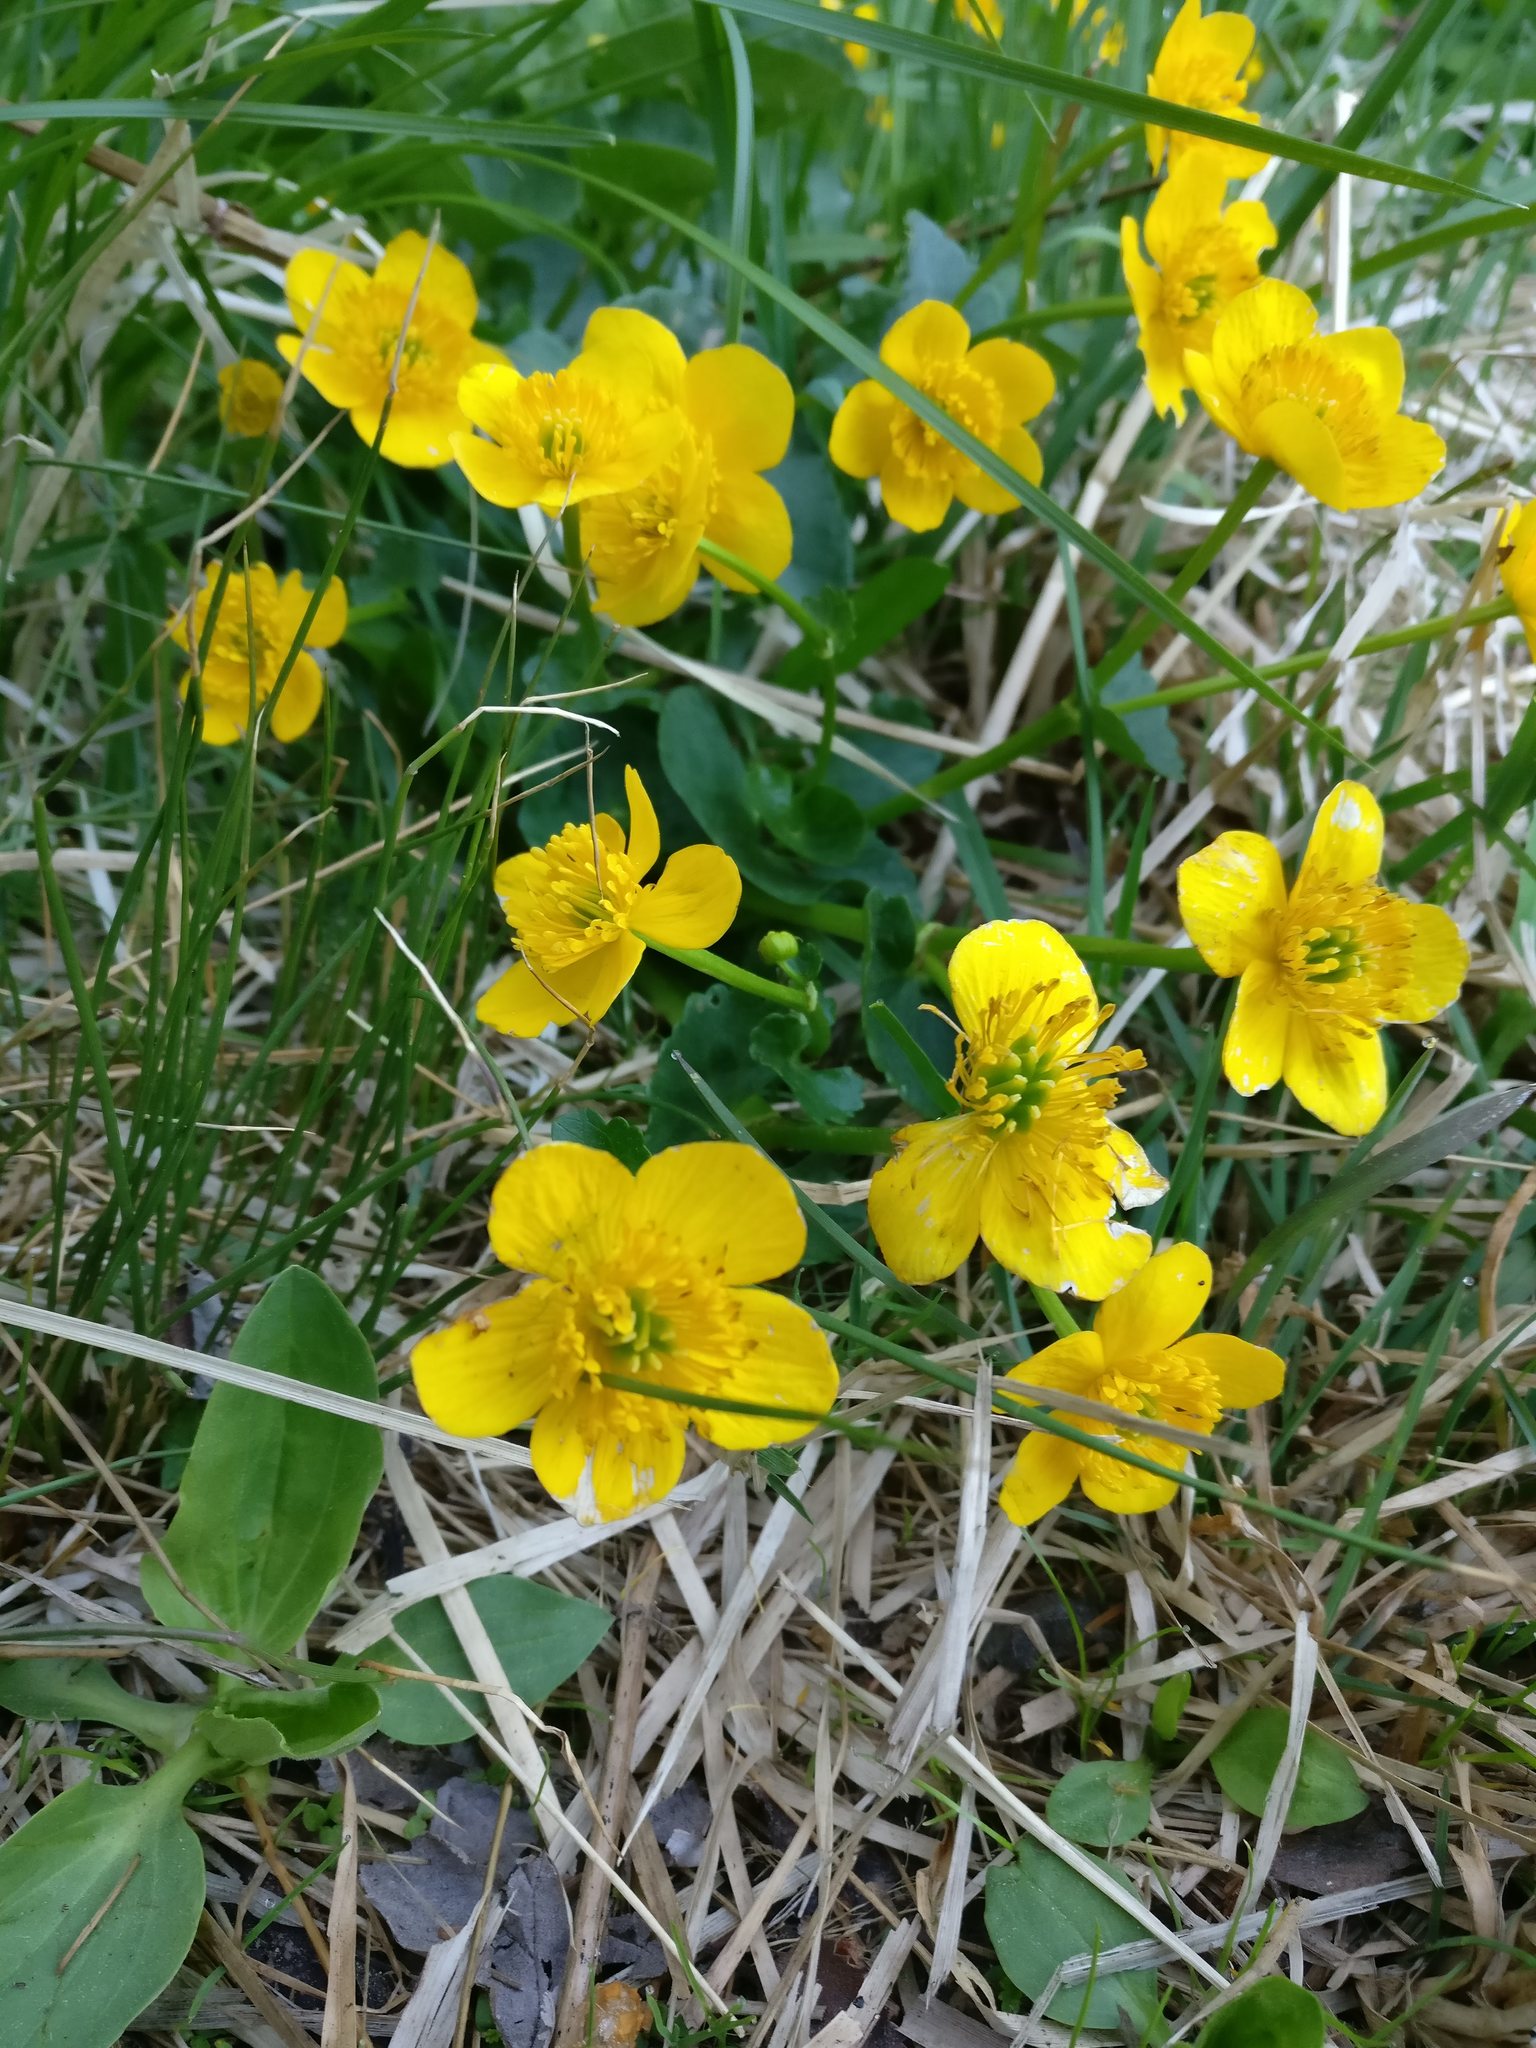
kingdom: Plantae
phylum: Tracheophyta
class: Magnoliopsida
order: Ranunculales
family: Ranunculaceae
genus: Caltha
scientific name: Caltha palustris
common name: Marsh marigold
